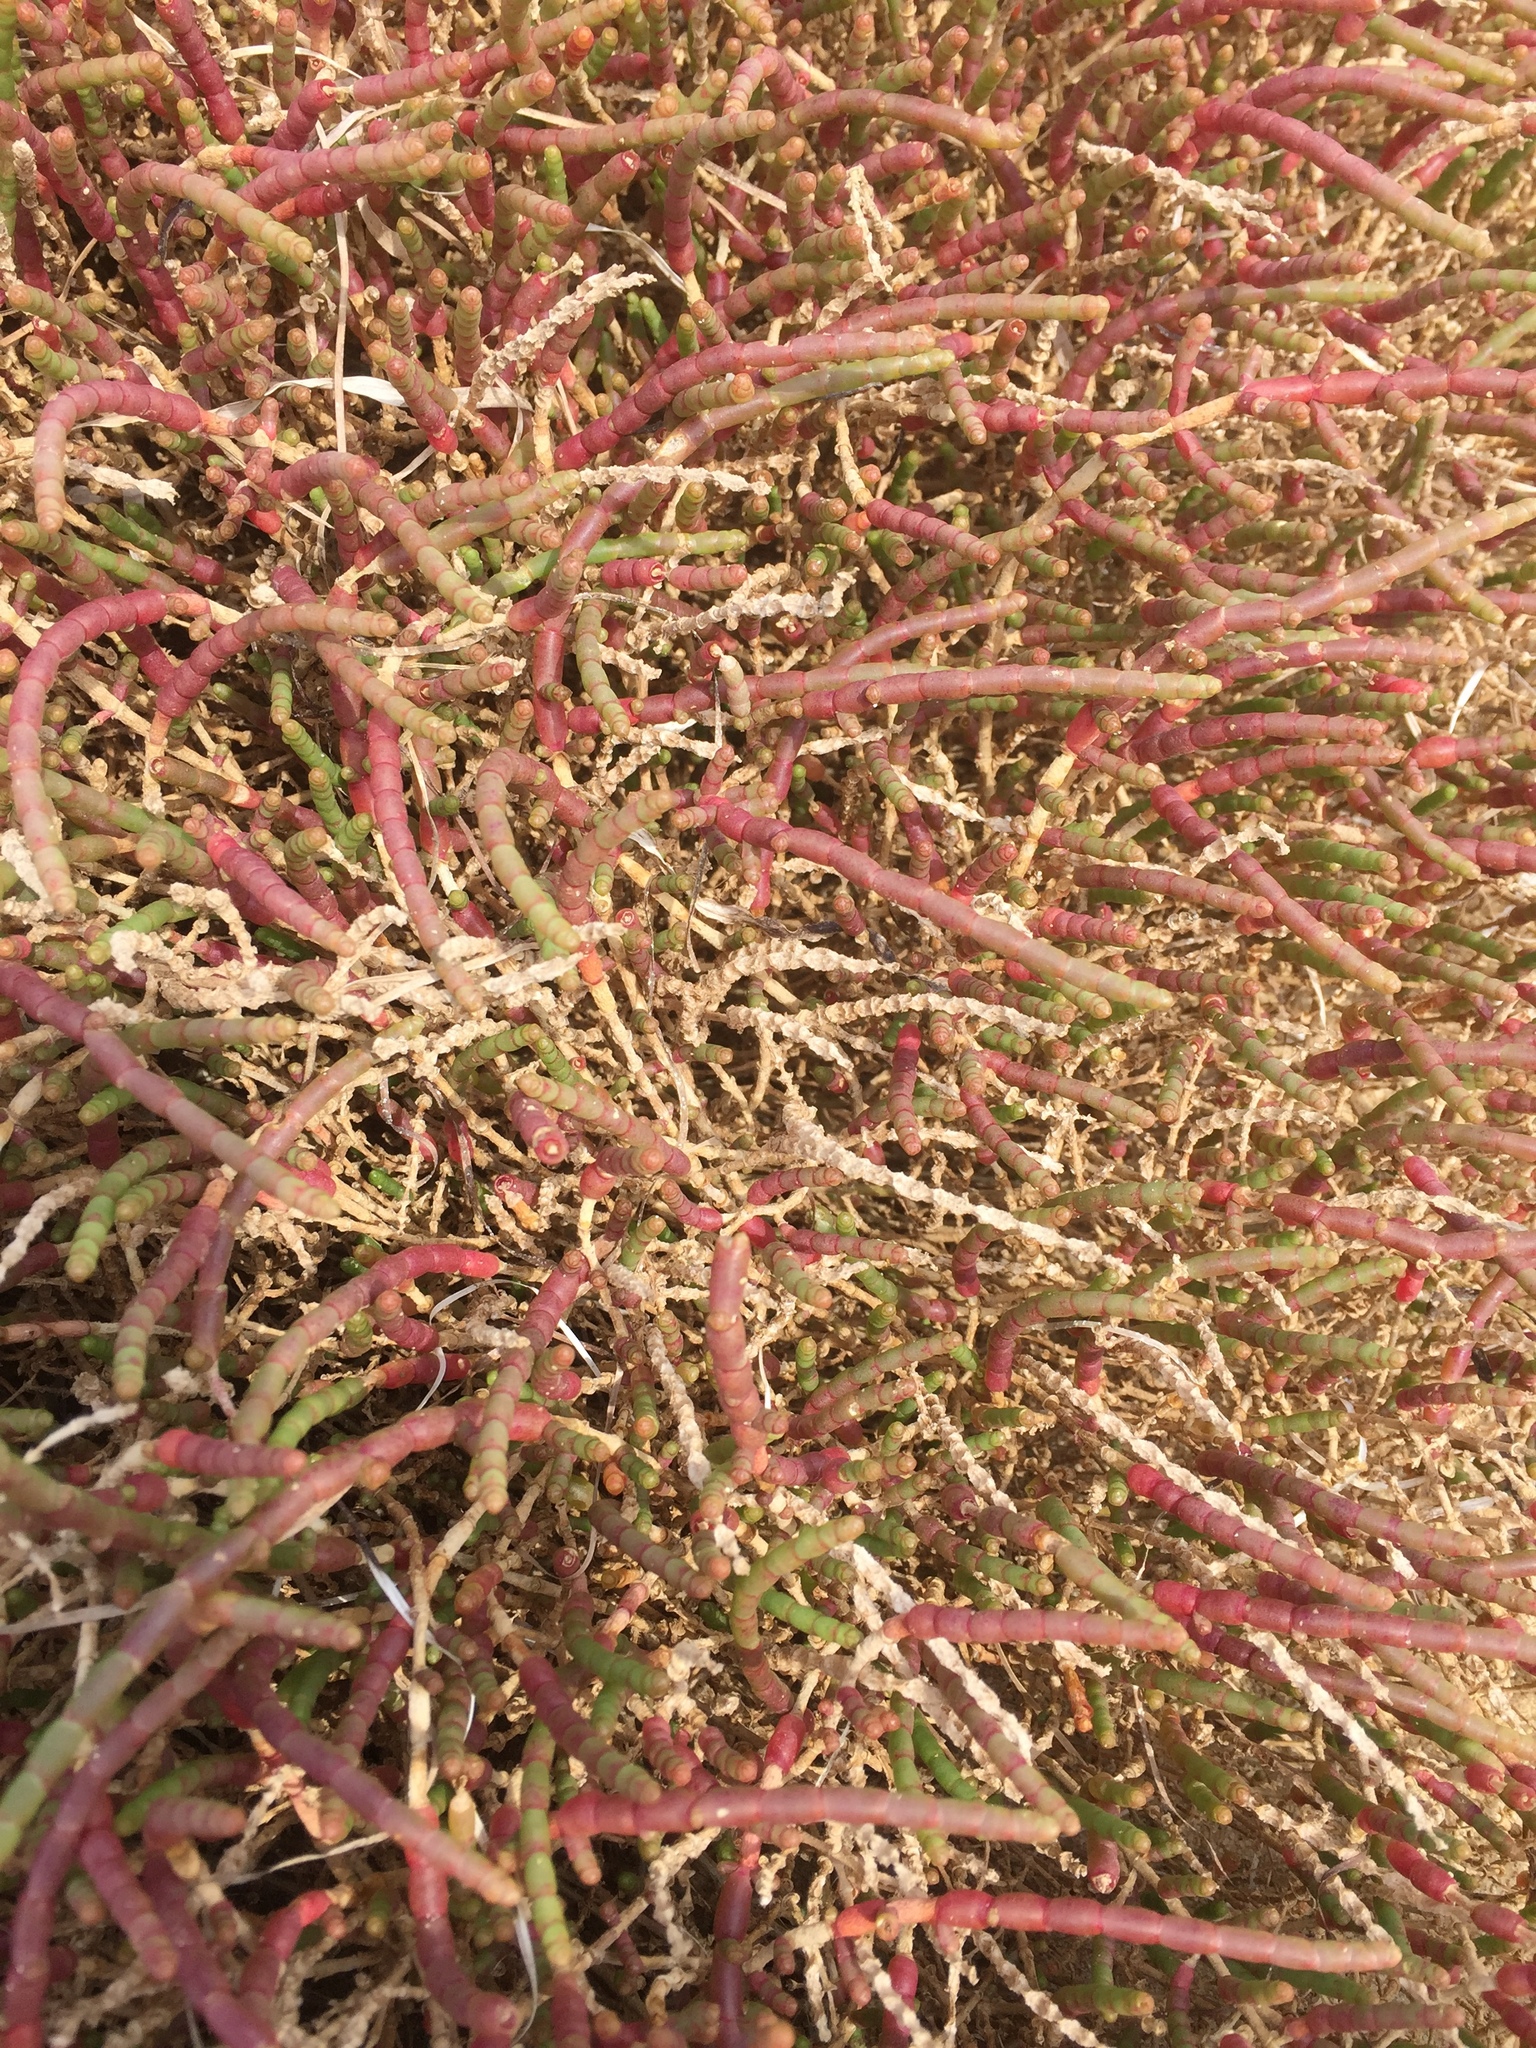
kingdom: Plantae
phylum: Tracheophyta
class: Magnoliopsida
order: Caryophyllales
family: Amaranthaceae
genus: Arthrocaulon
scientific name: Arthrocaulon macrostachyum
